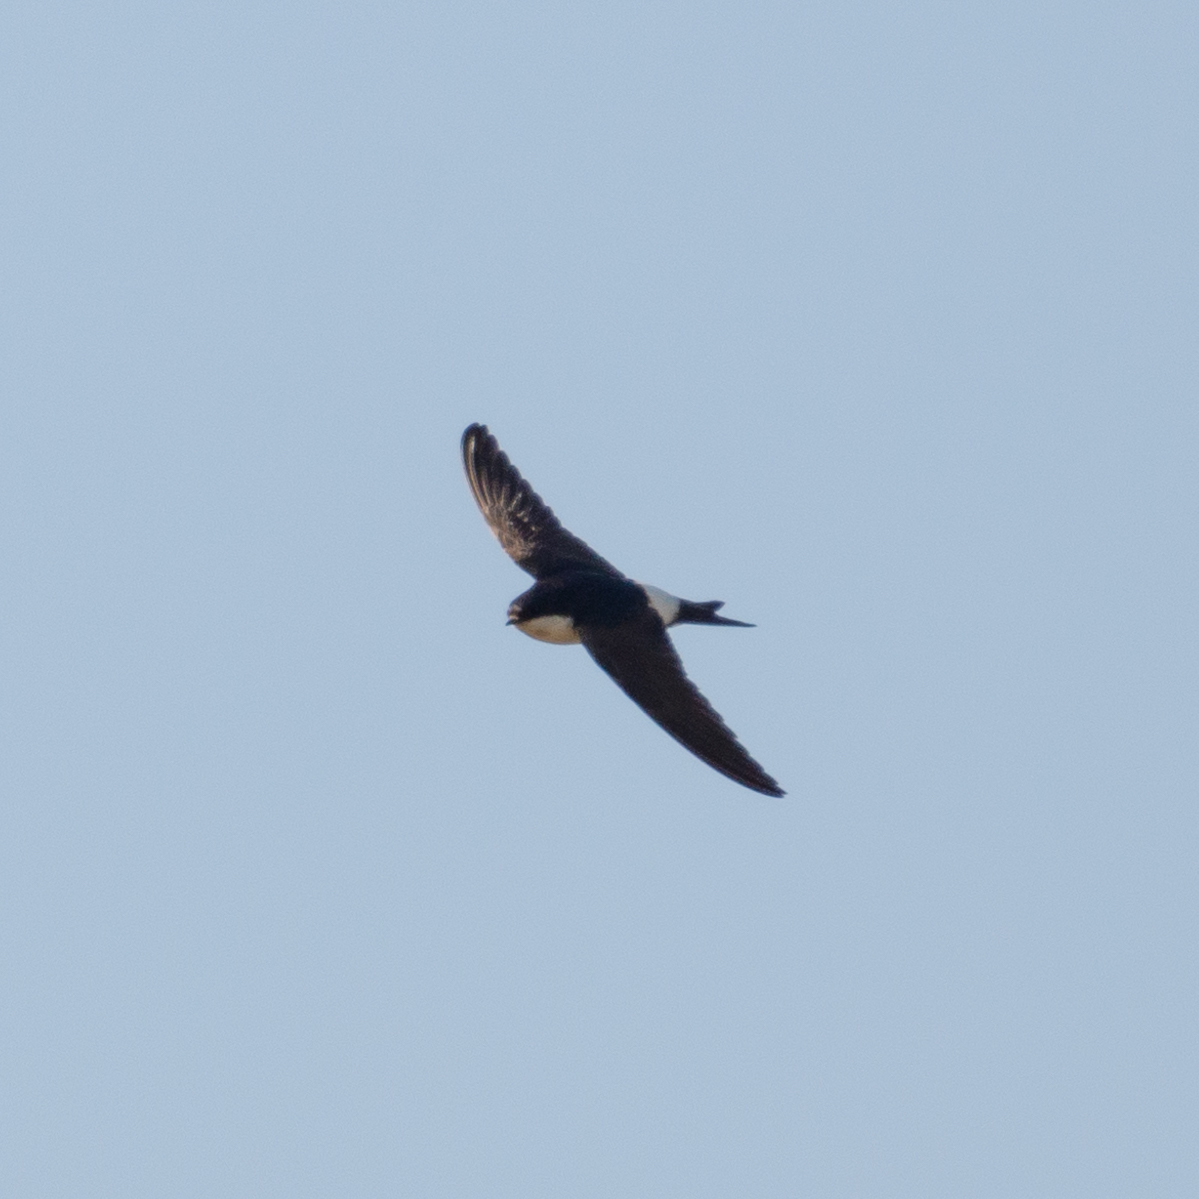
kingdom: Animalia
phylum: Chordata
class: Aves
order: Passeriformes
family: Hirundinidae
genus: Delichon
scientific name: Delichon urbicum
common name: Common house martin
